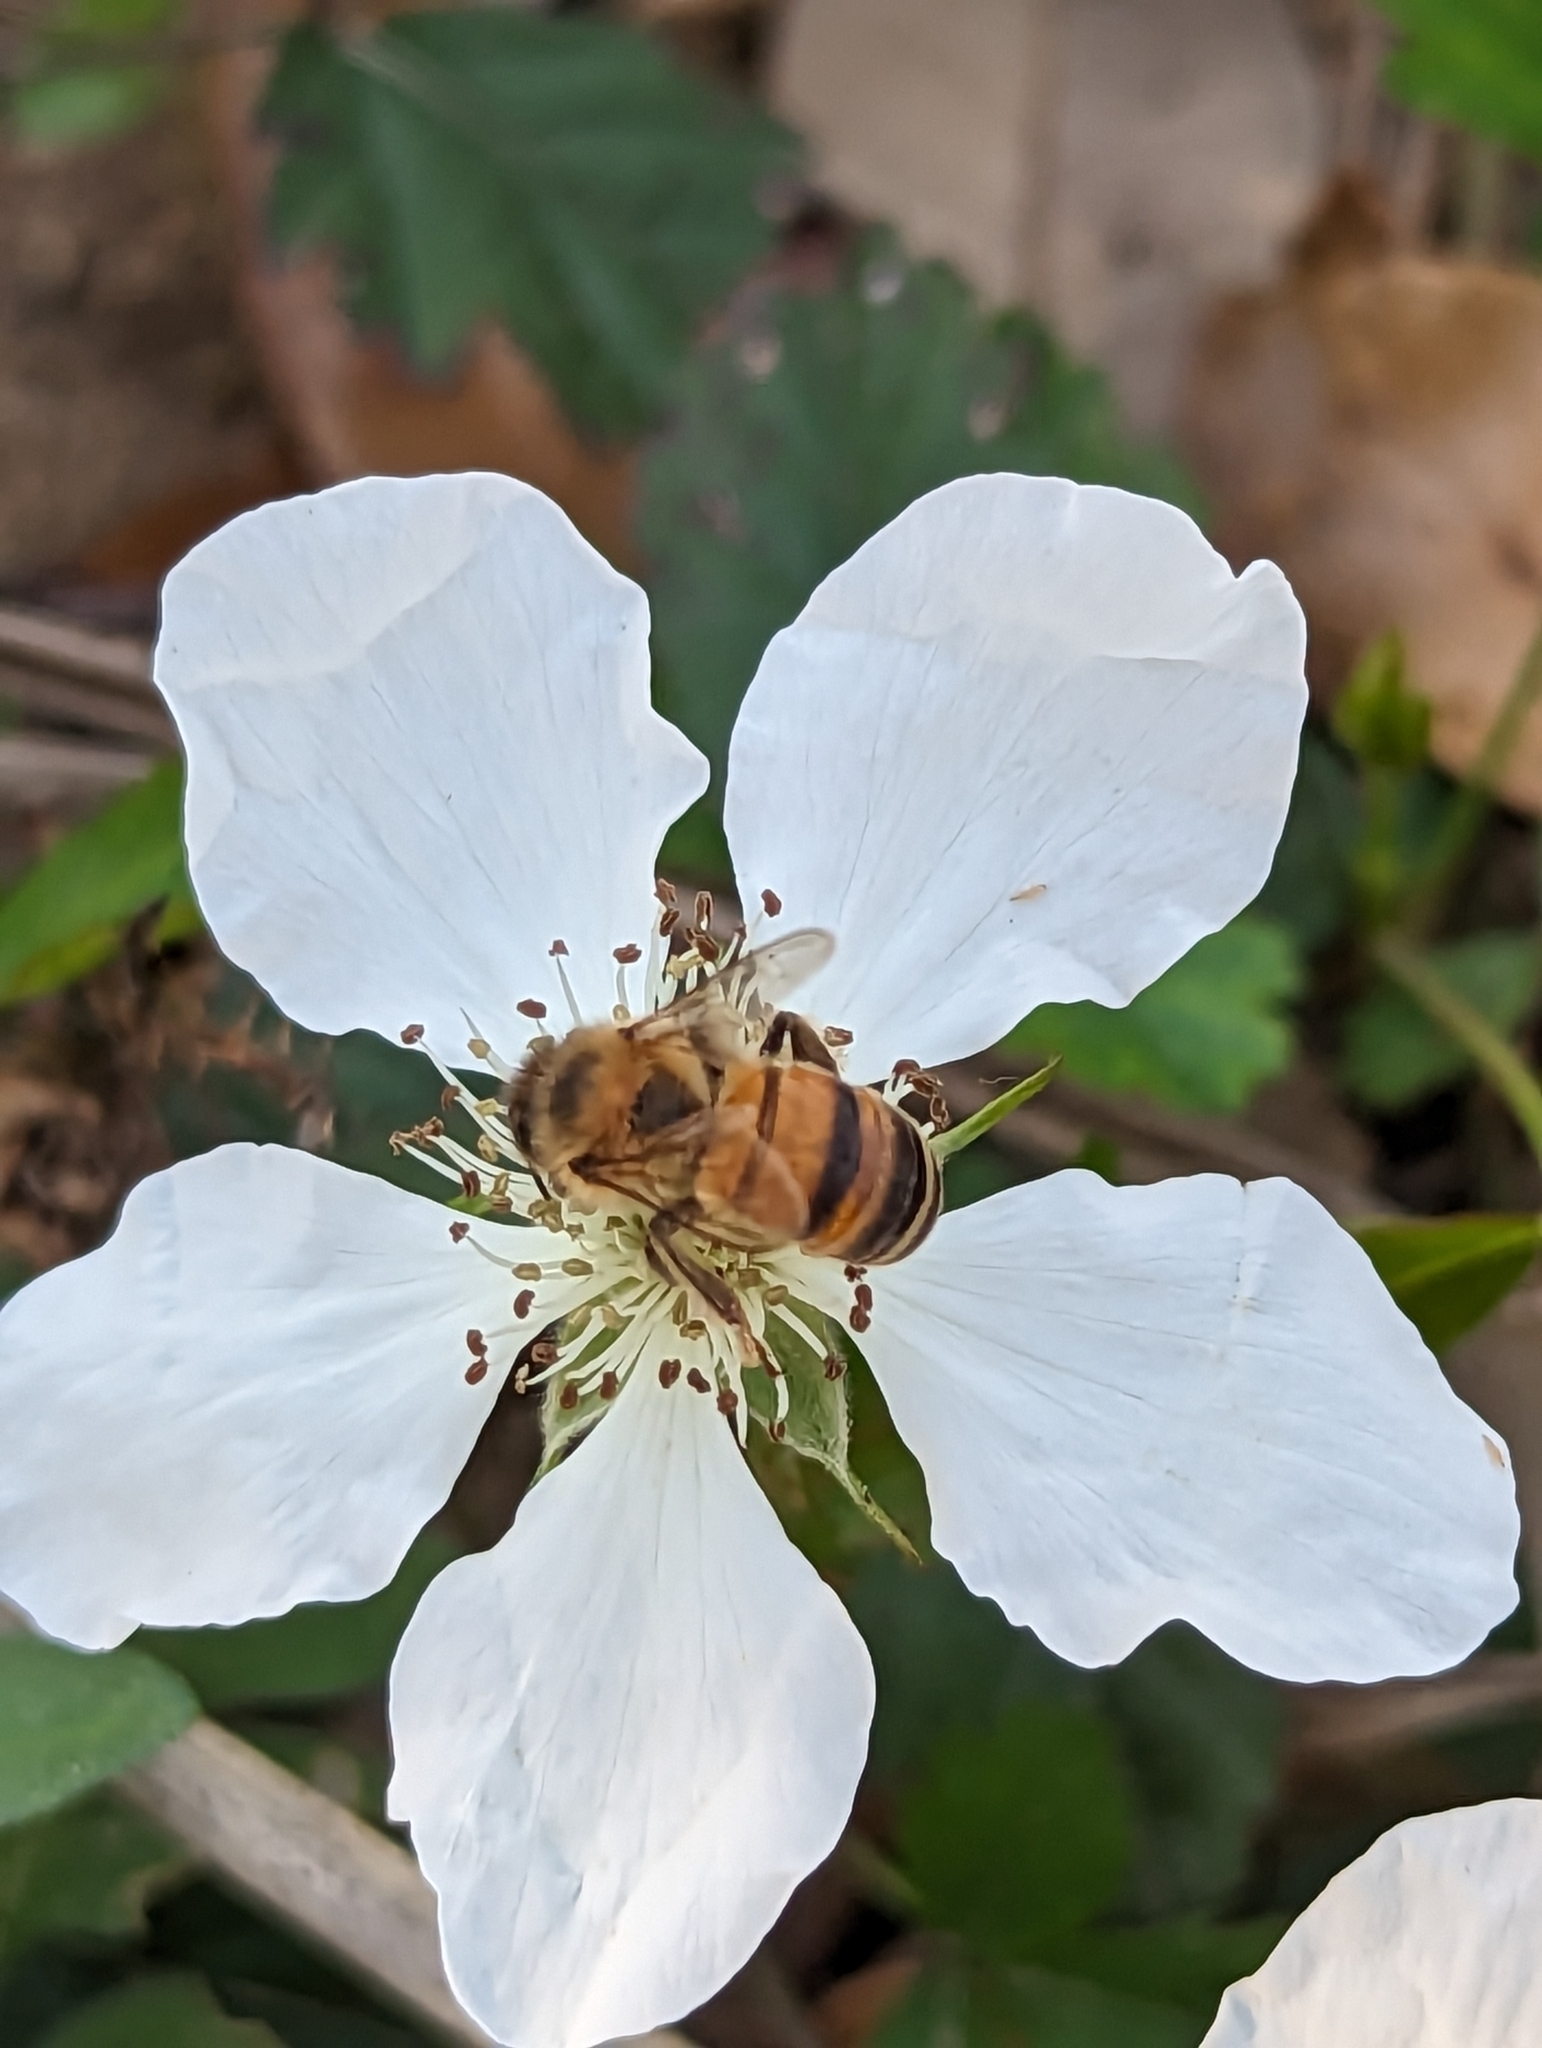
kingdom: Animalia
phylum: Arthropoda
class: Insecta
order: Hymenoptera
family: Apidae
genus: Apis
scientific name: Apis mellifera
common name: Honey bee
